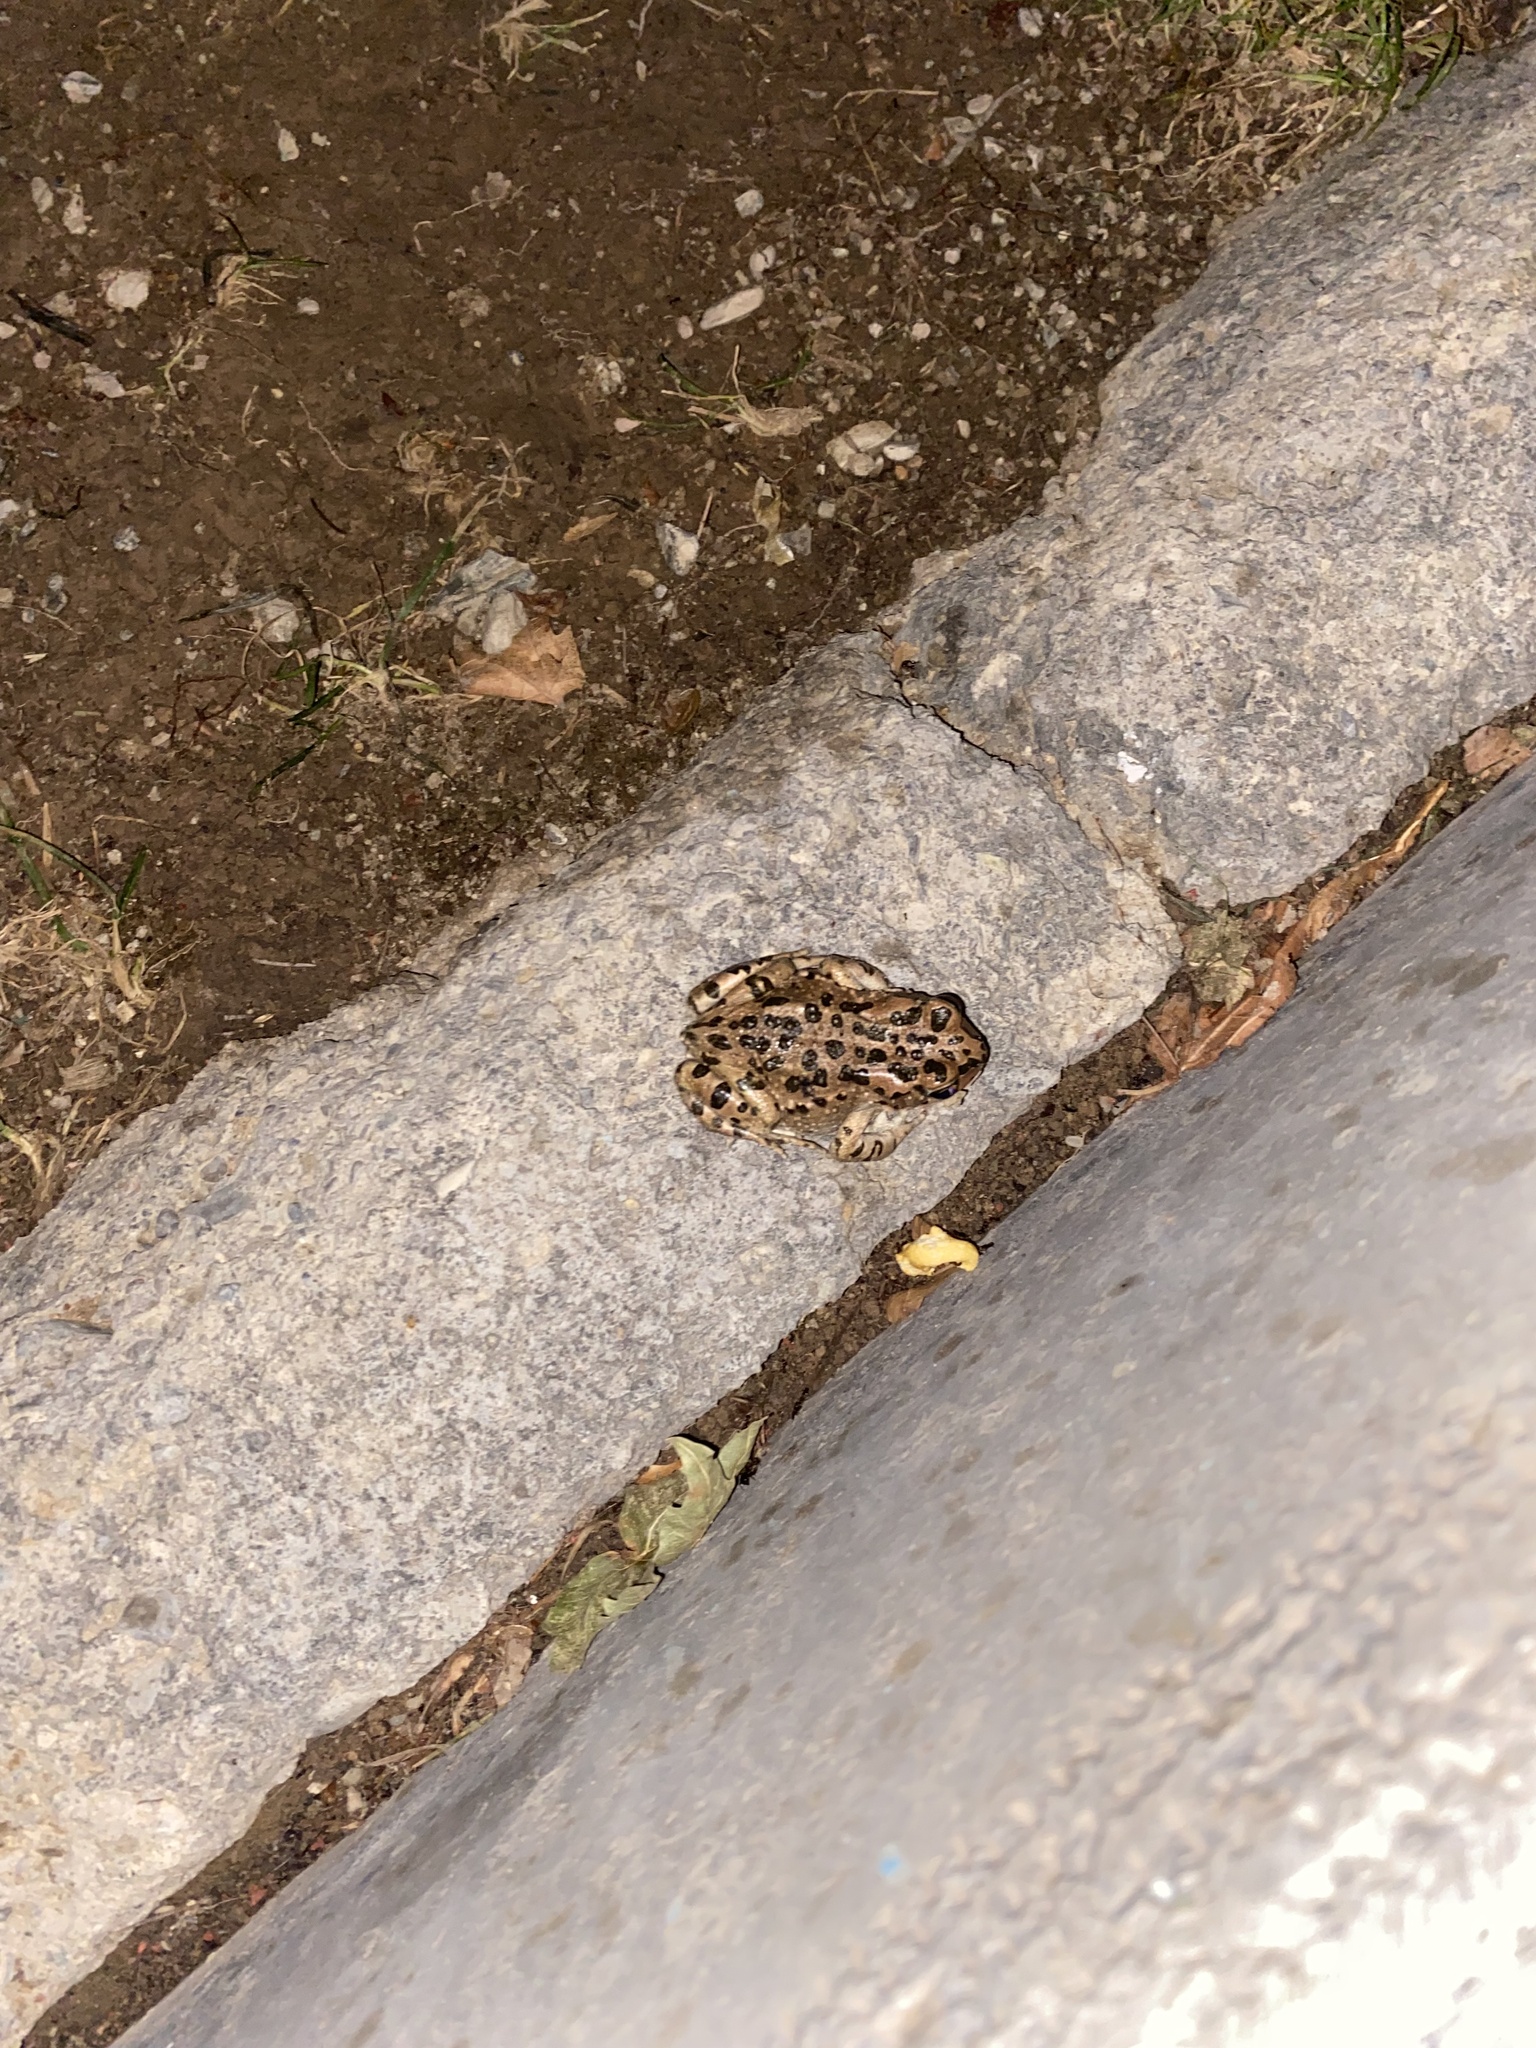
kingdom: Animalia
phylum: Chordata
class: Amphibia
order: Anura
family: Bufonidae
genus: Bufotes
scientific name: Bufotes viridis
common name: European green toad
